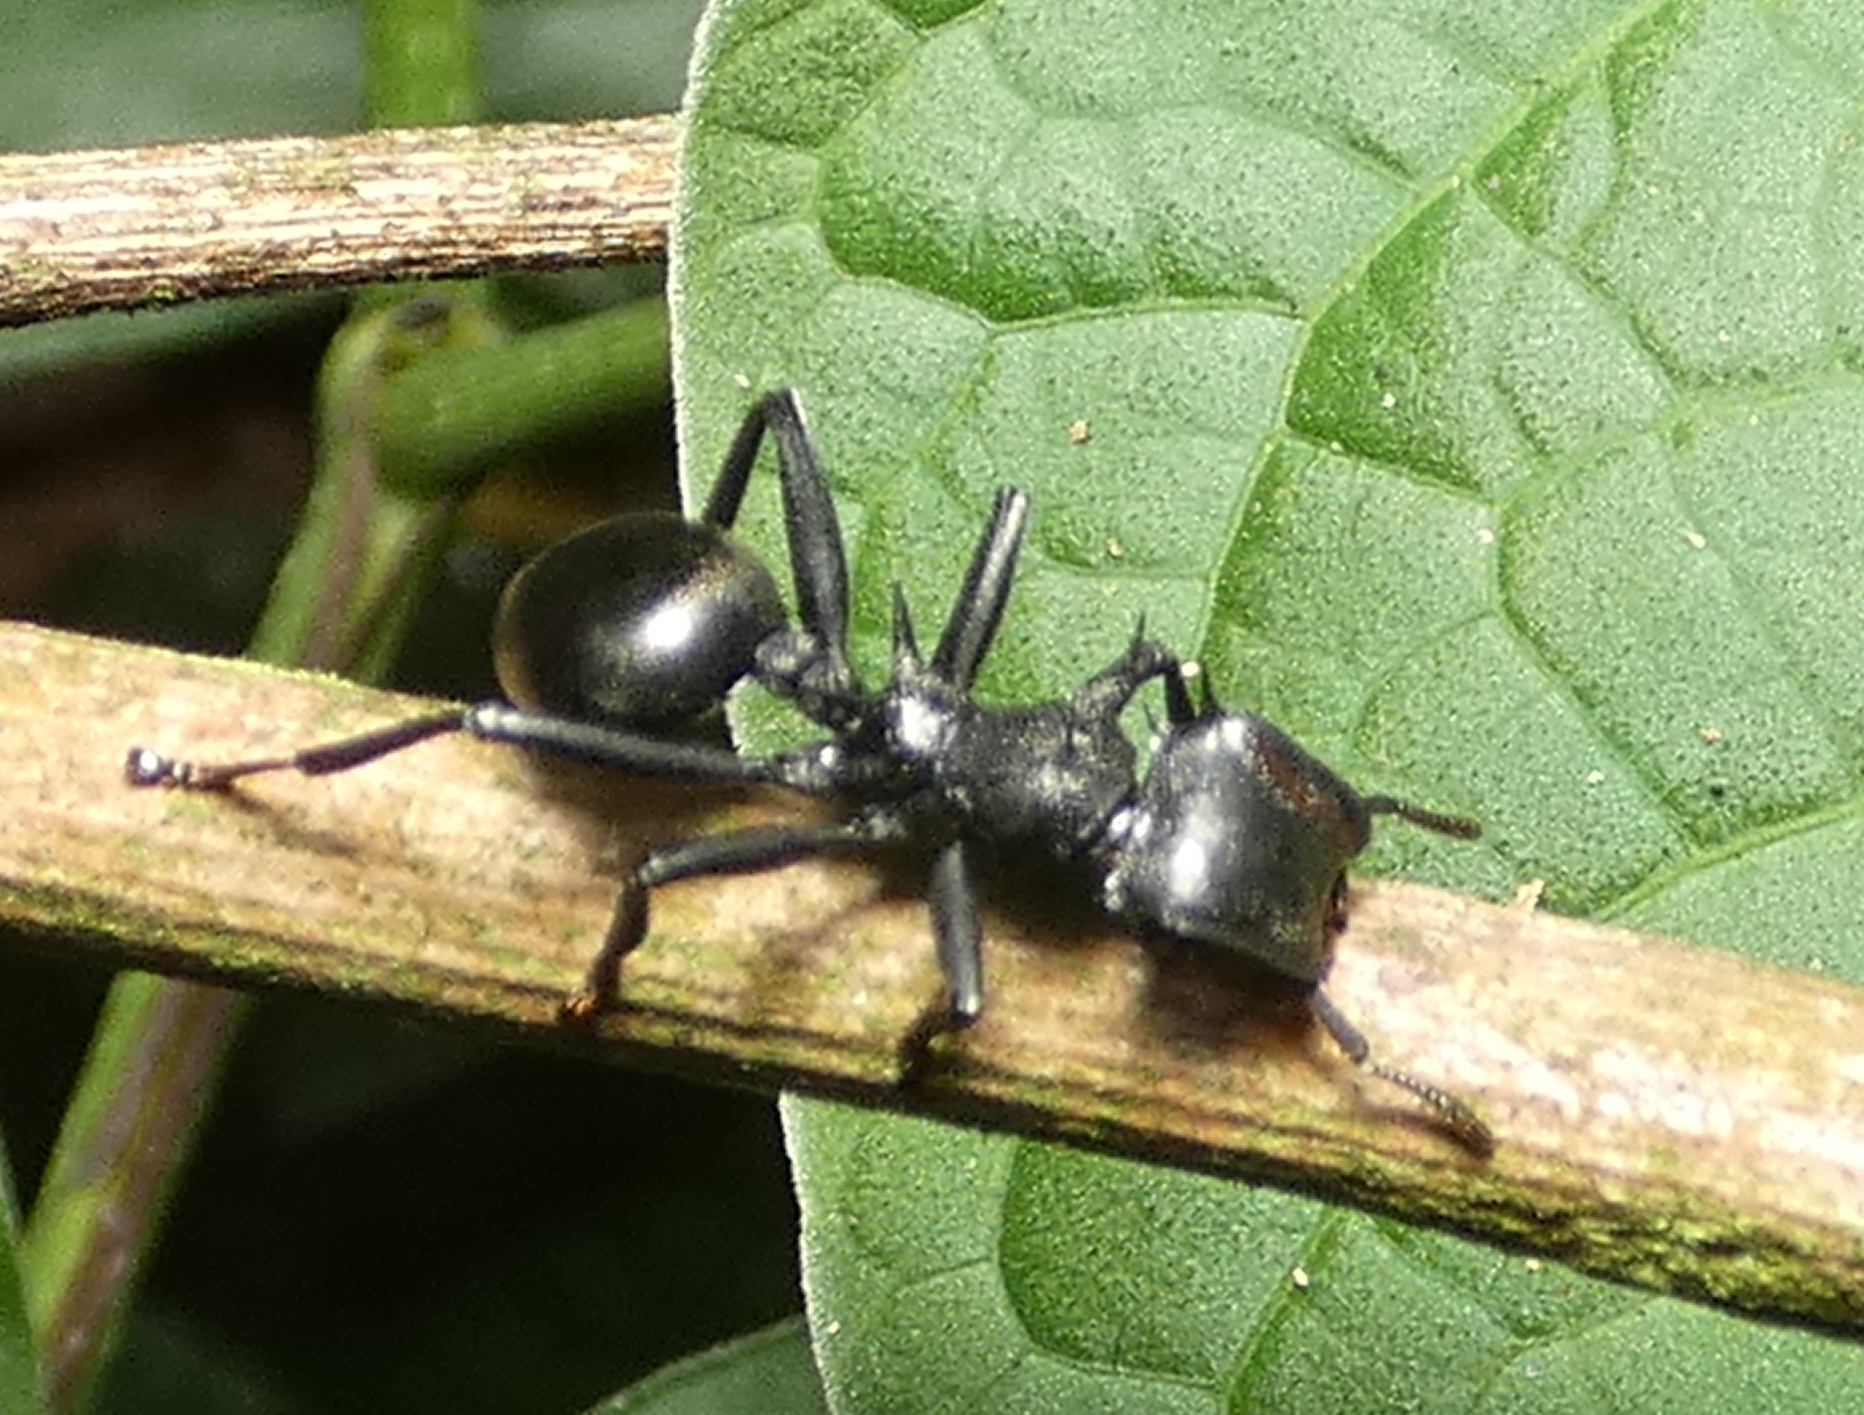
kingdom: Animalia
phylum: Arthropoda
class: Insecta
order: Hymenoptera
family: Formicidae
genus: Cephalotes
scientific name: Cephalotes atratus
